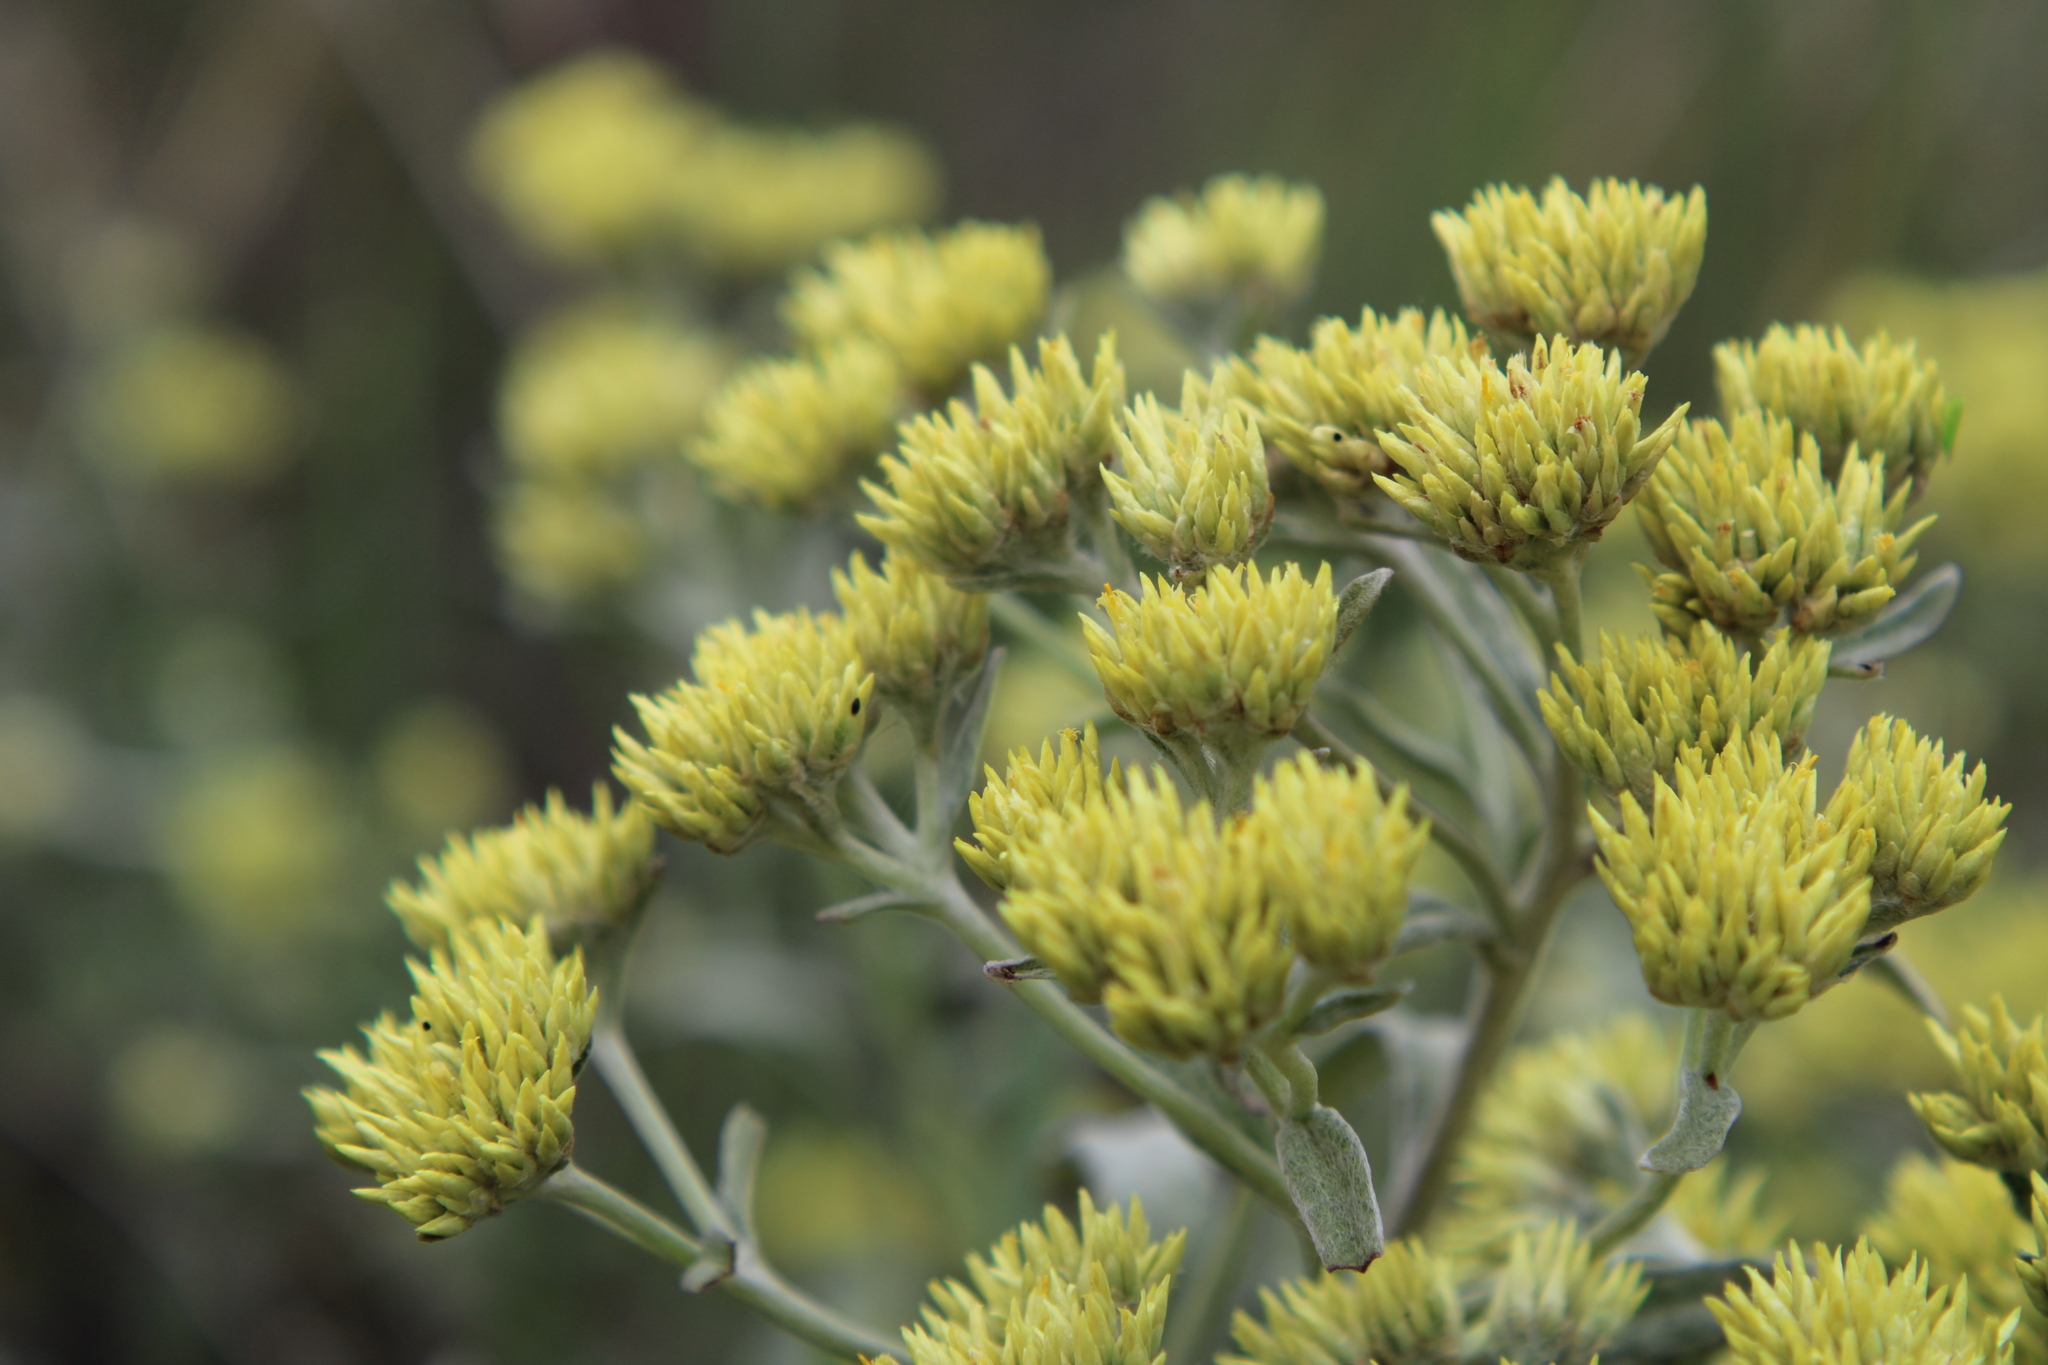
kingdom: Plantae
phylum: Tracheophyta
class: Magnoliopsida
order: Asterales
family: Asteraceae
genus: Achyrocline
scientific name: Achyrocline satureioides
